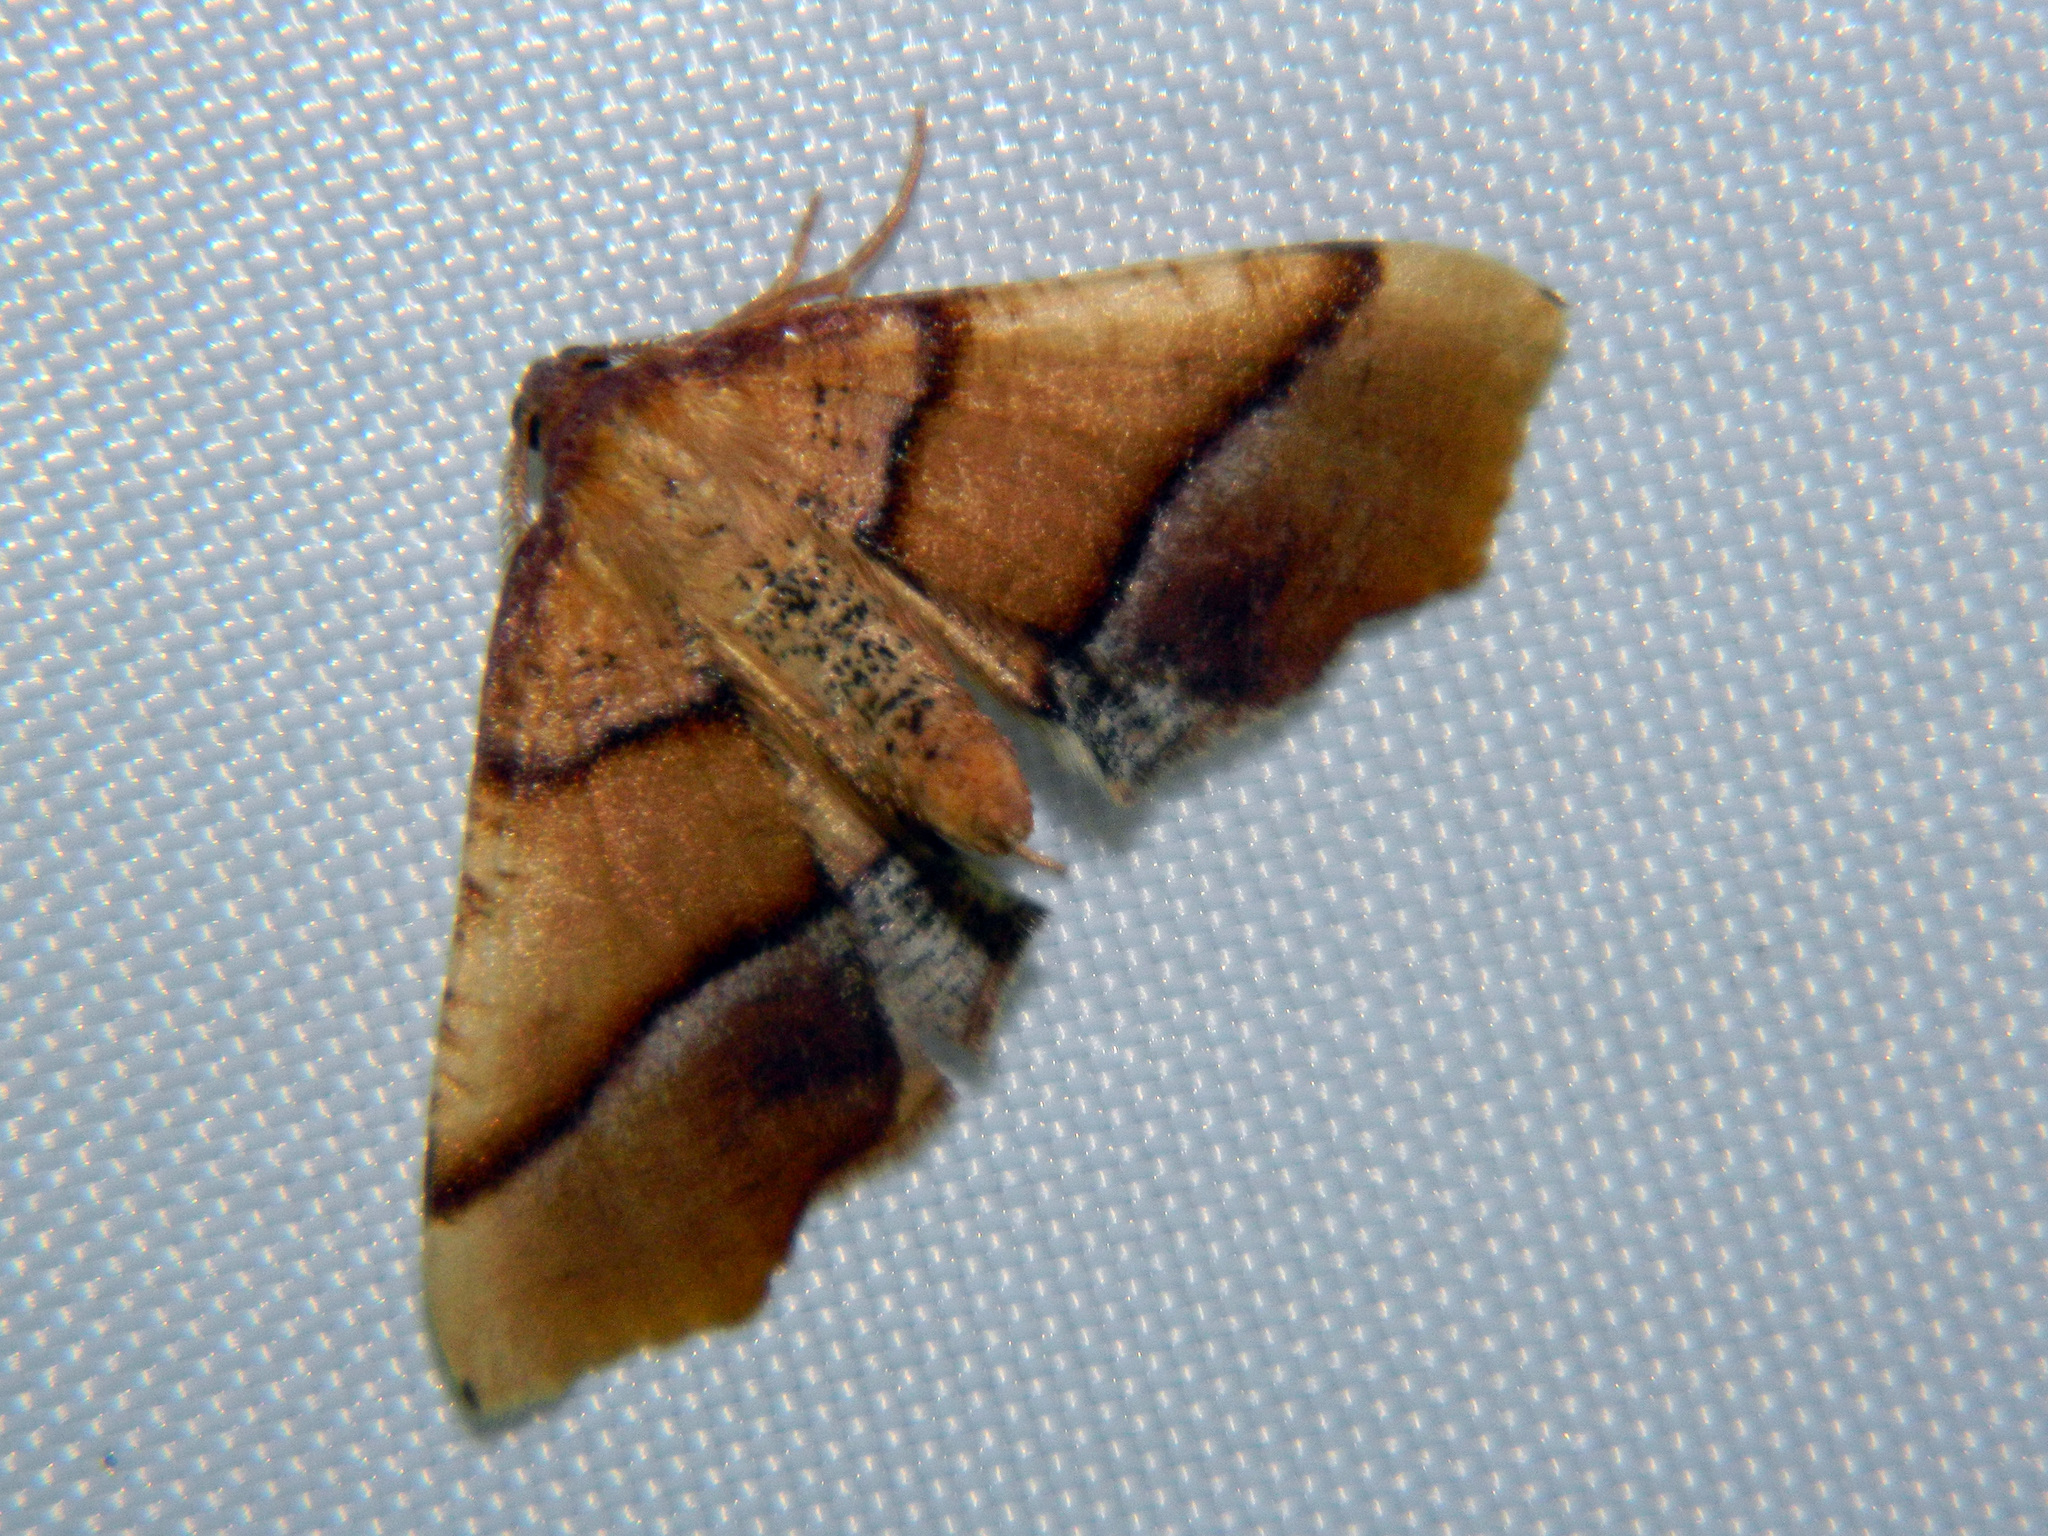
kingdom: Animalia
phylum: Arthropoda
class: Insecta
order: Lepidoptera
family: Geometridae
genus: Plagodis
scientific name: Plagodis phlogosaria
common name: Straight-lined plagodis
